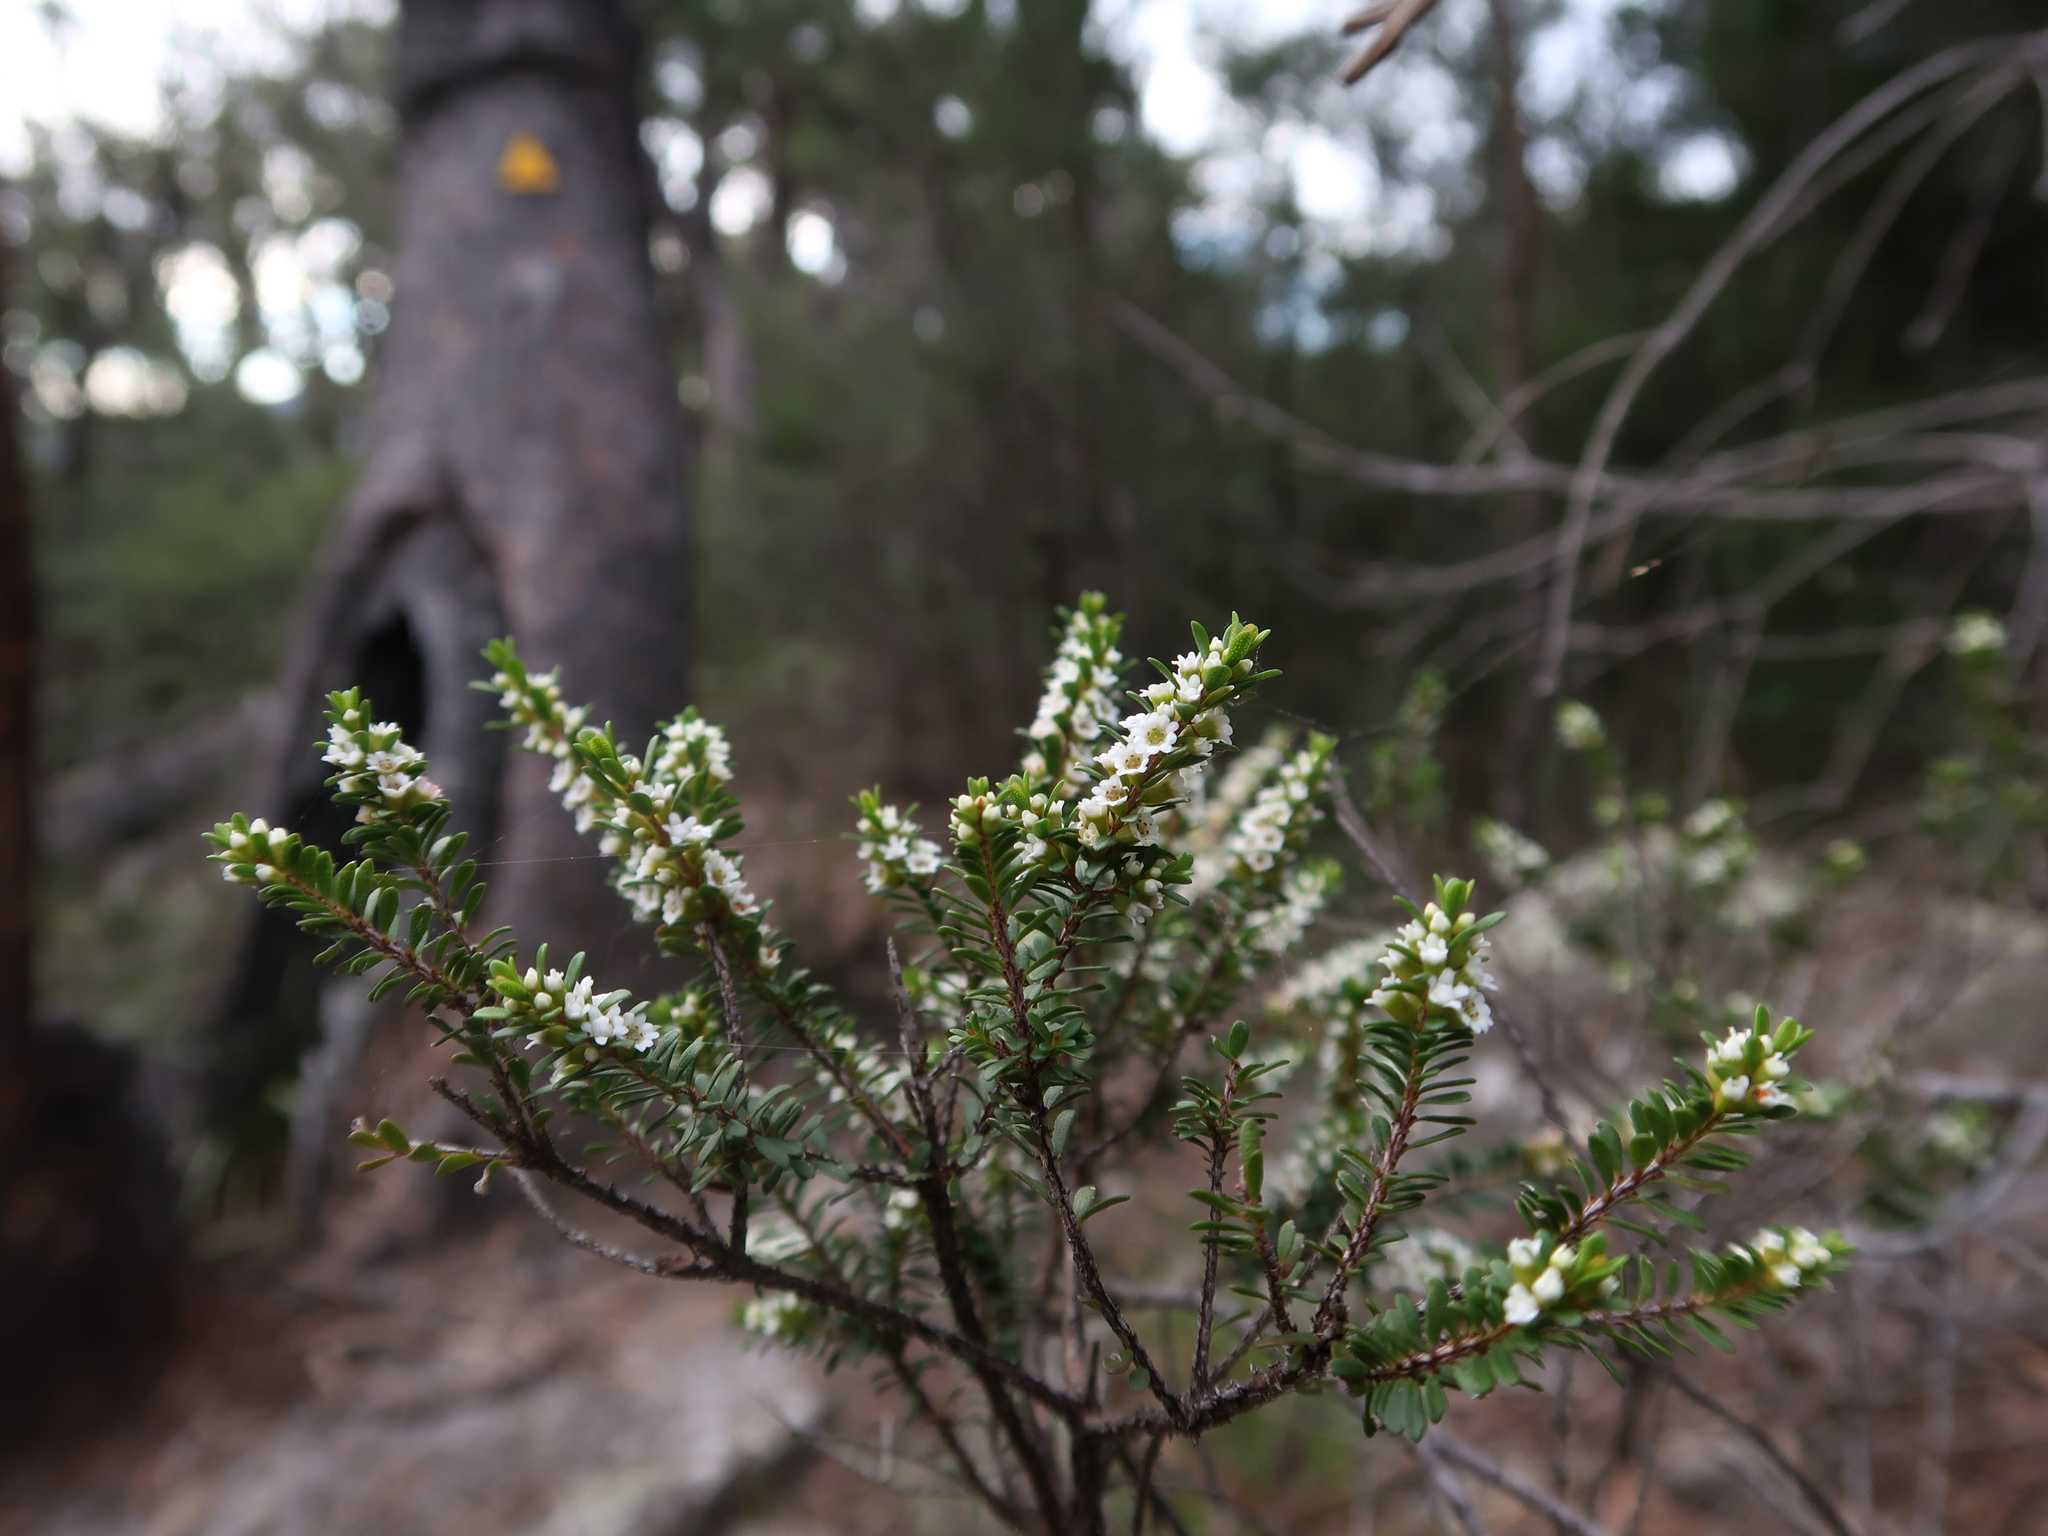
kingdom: Plantae
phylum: Tracheophyta
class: Magnoliopsida
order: Myrtales
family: Myrtaceae
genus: Thryptomene
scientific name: Thryptomene micrantha
